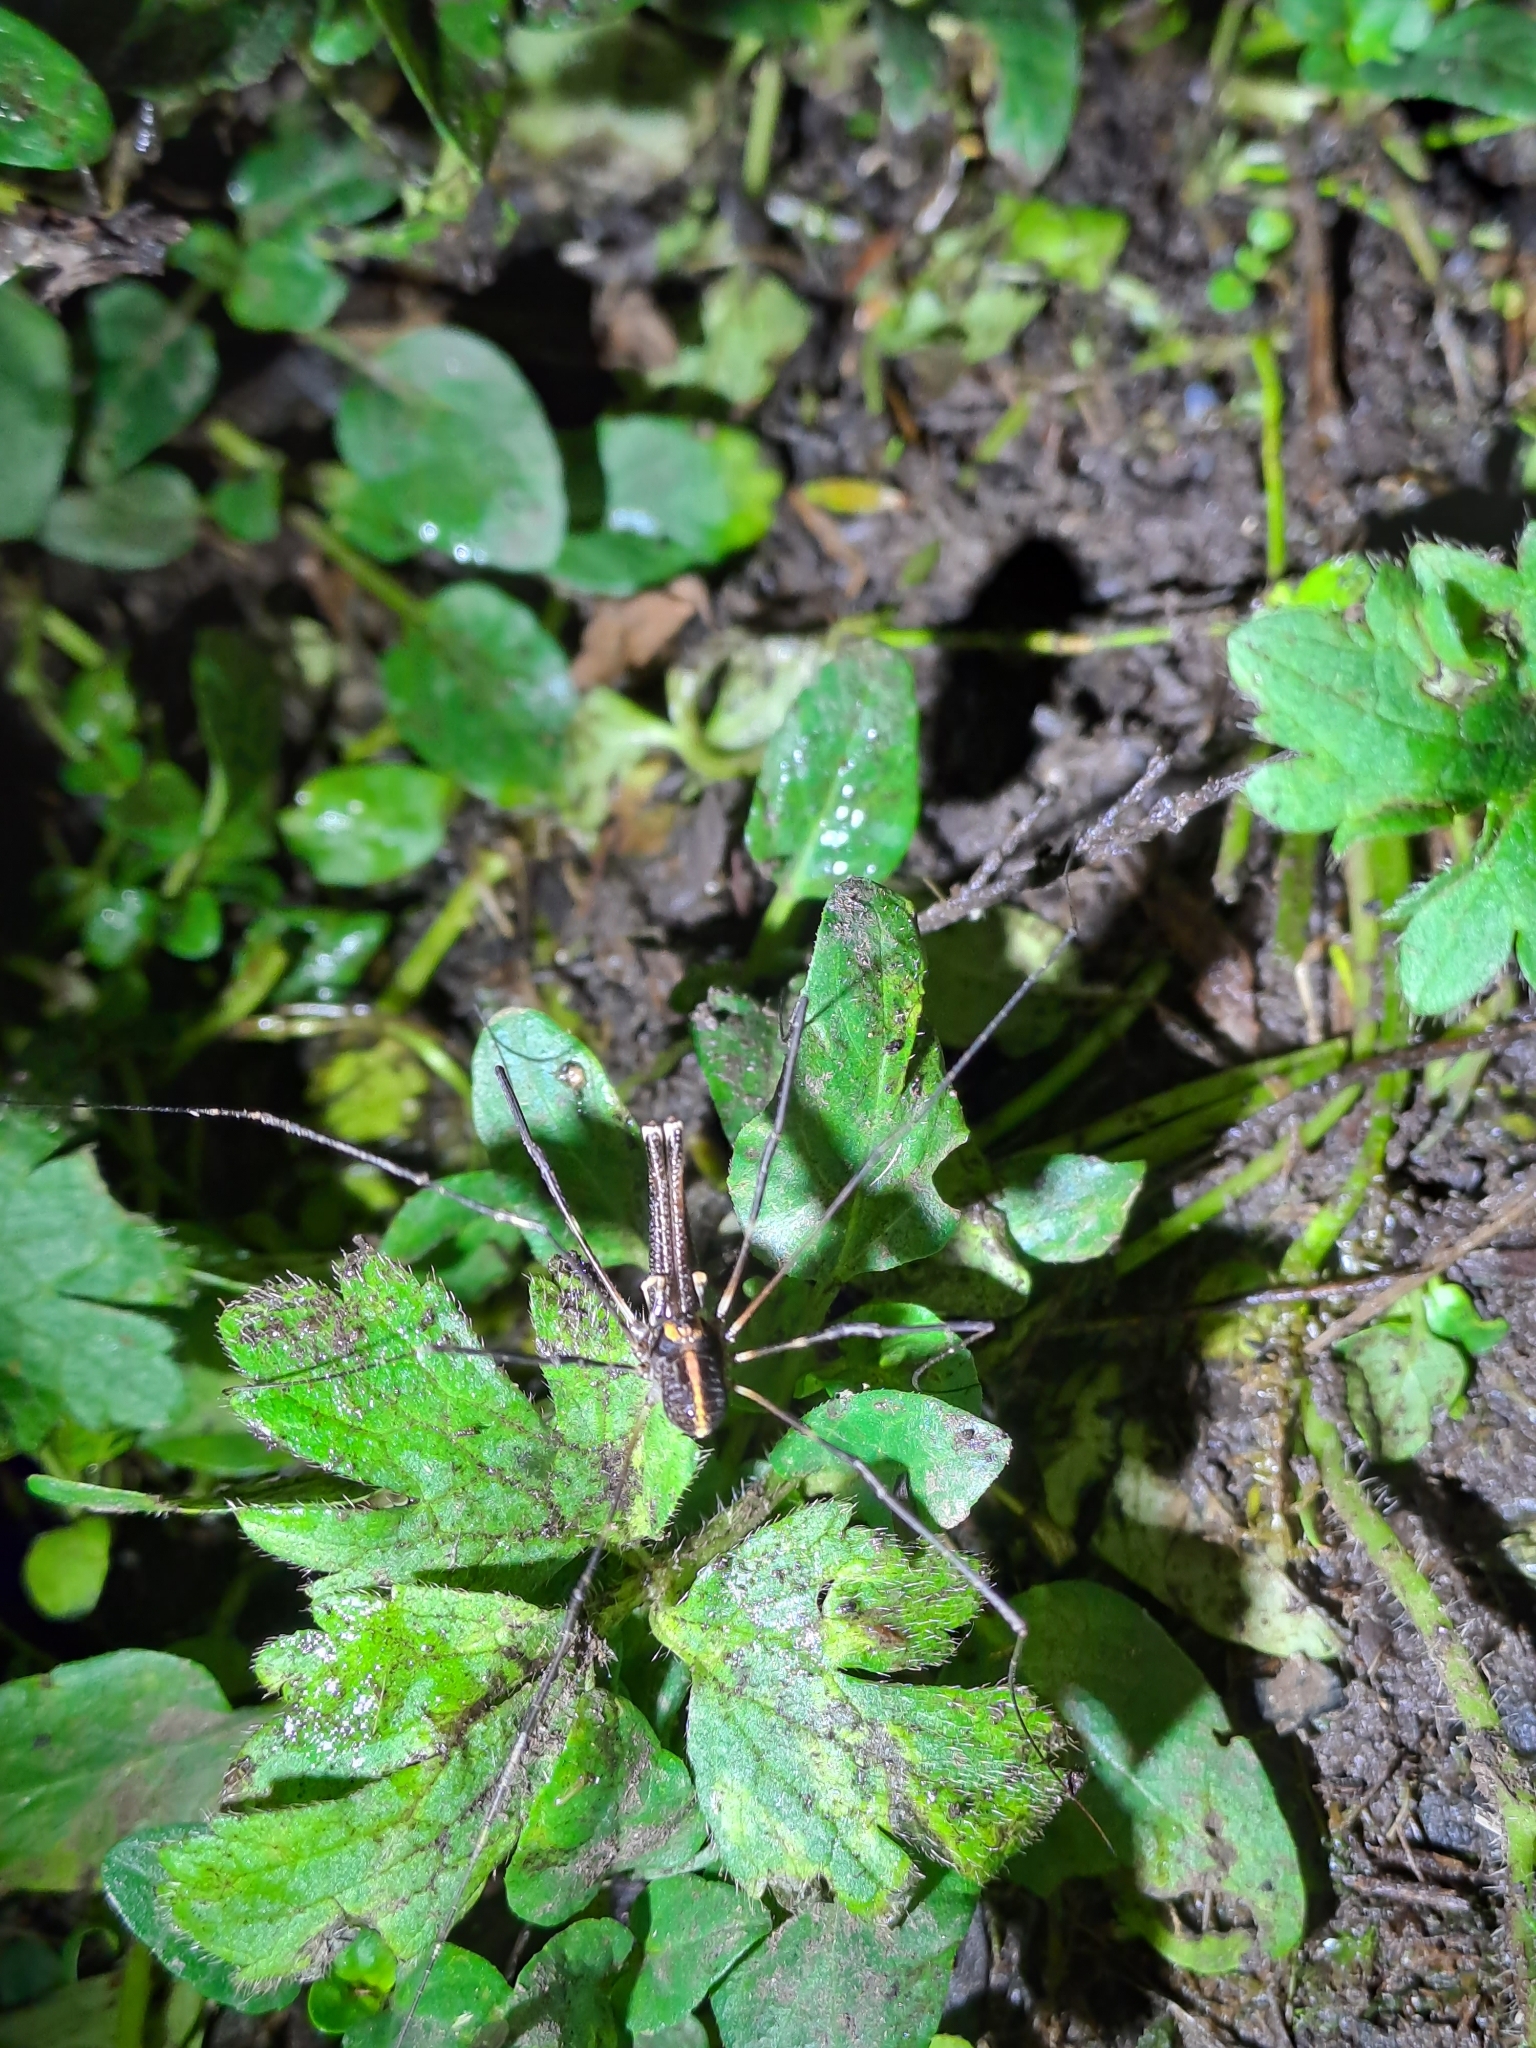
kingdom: Animalia
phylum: Arthropoda
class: Arachnida
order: Opiliones
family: Neopilionidae
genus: Forsteropsalis
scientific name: Forsteropsalis pureora
